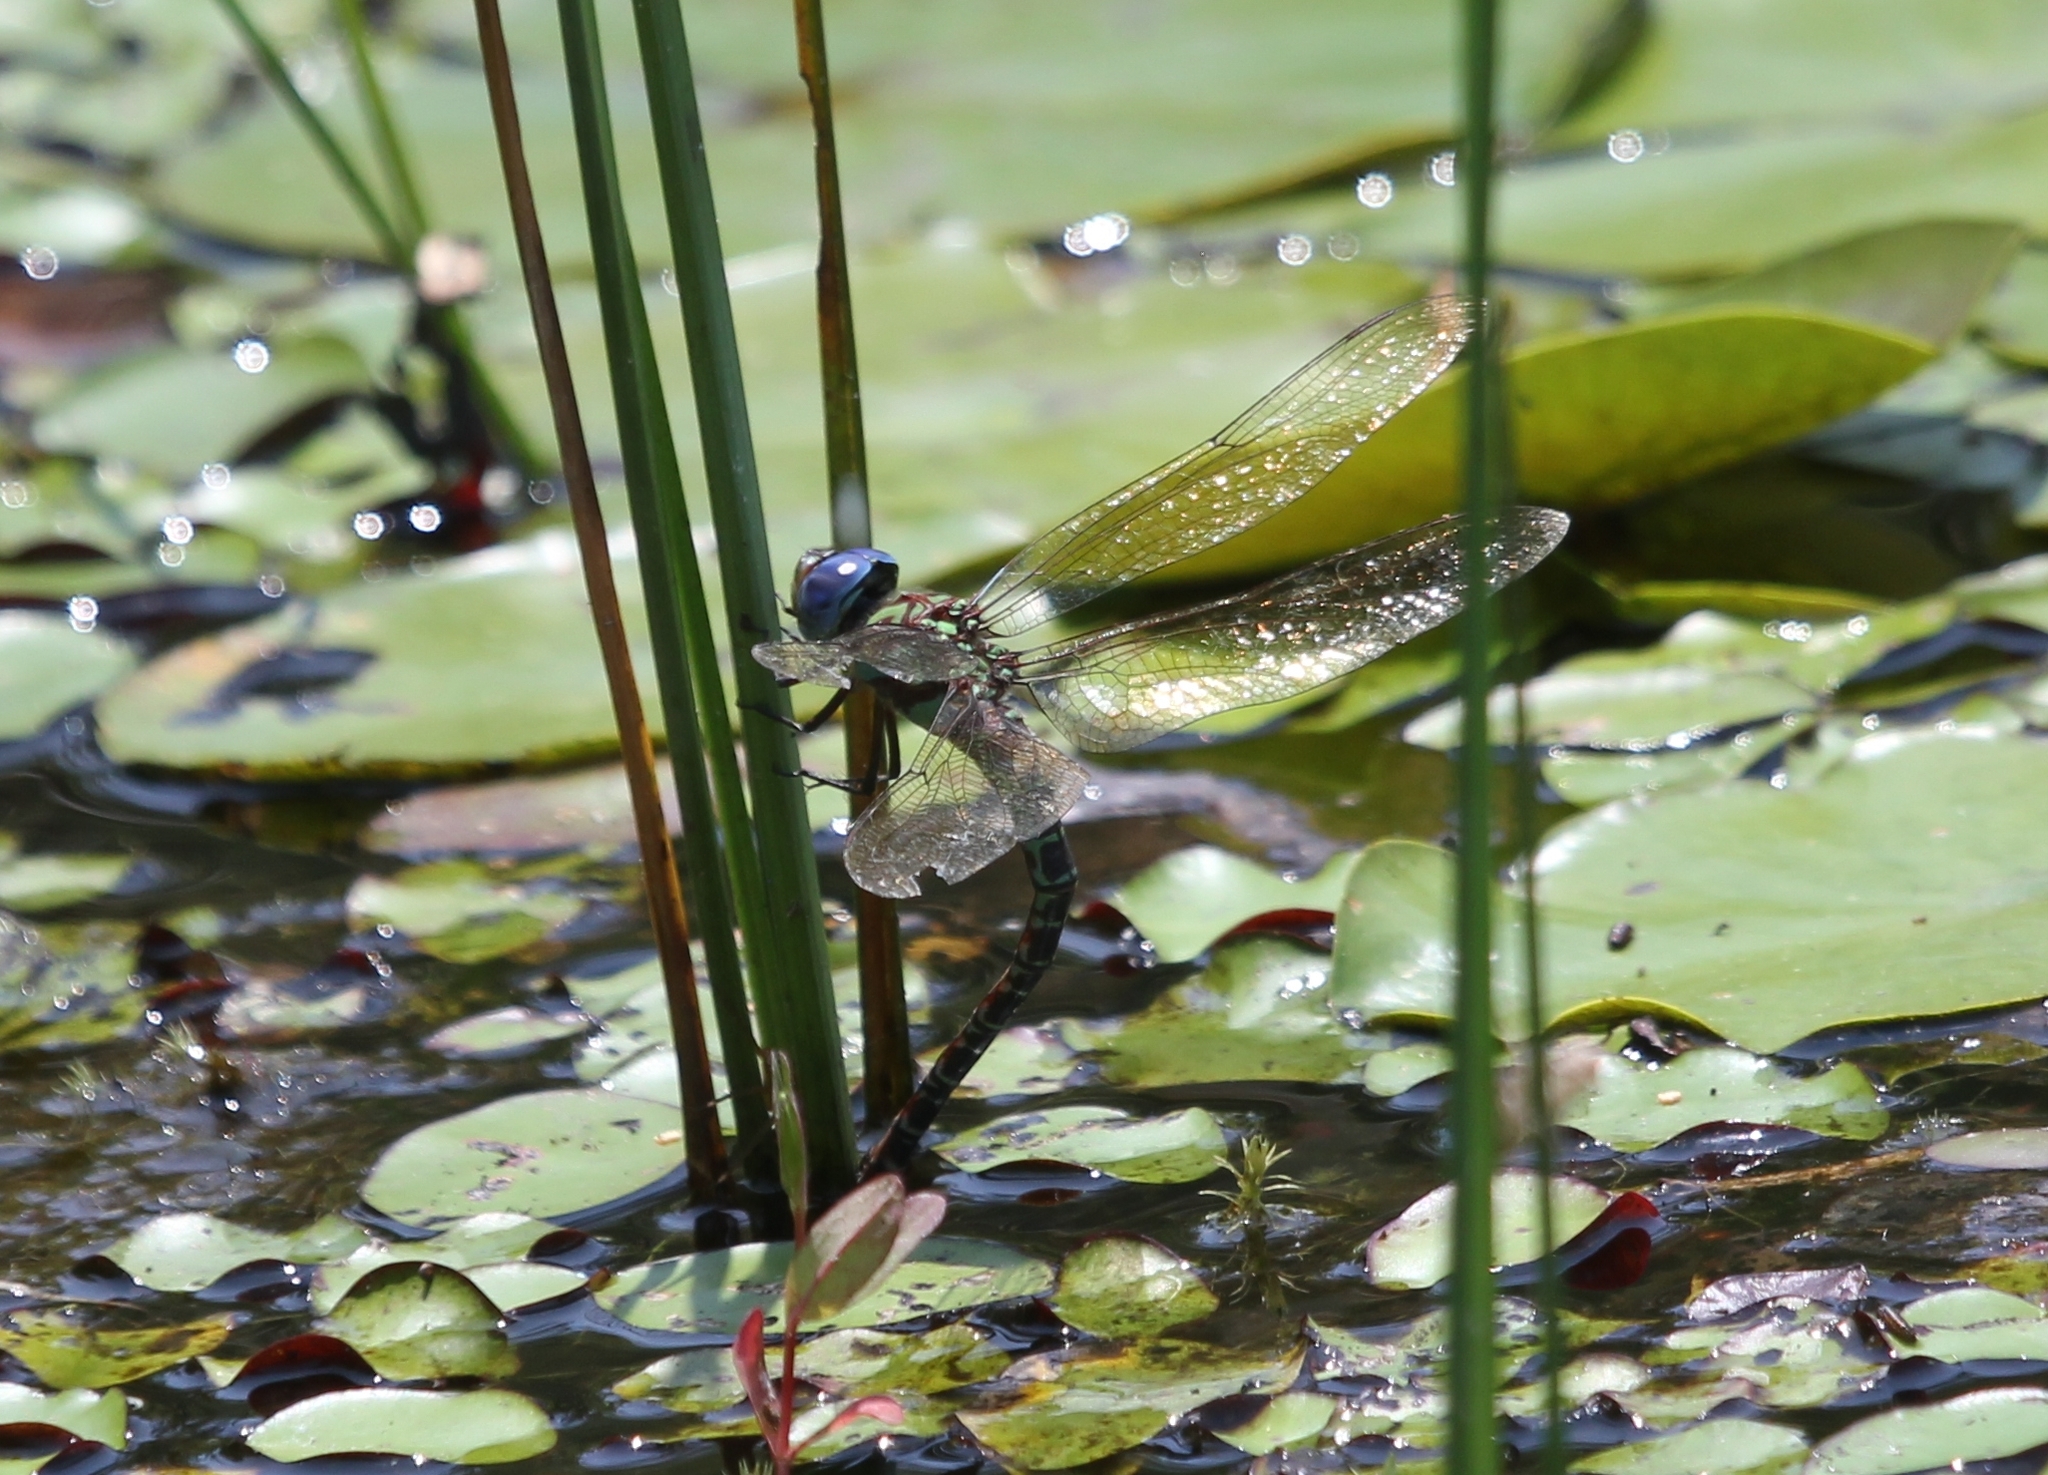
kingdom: Animalia
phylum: Arthropoda
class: Insecta
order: Odonata
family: Aeshnidae
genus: Epiaeschna
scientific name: Epiaeschna heros
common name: Swamp darner
